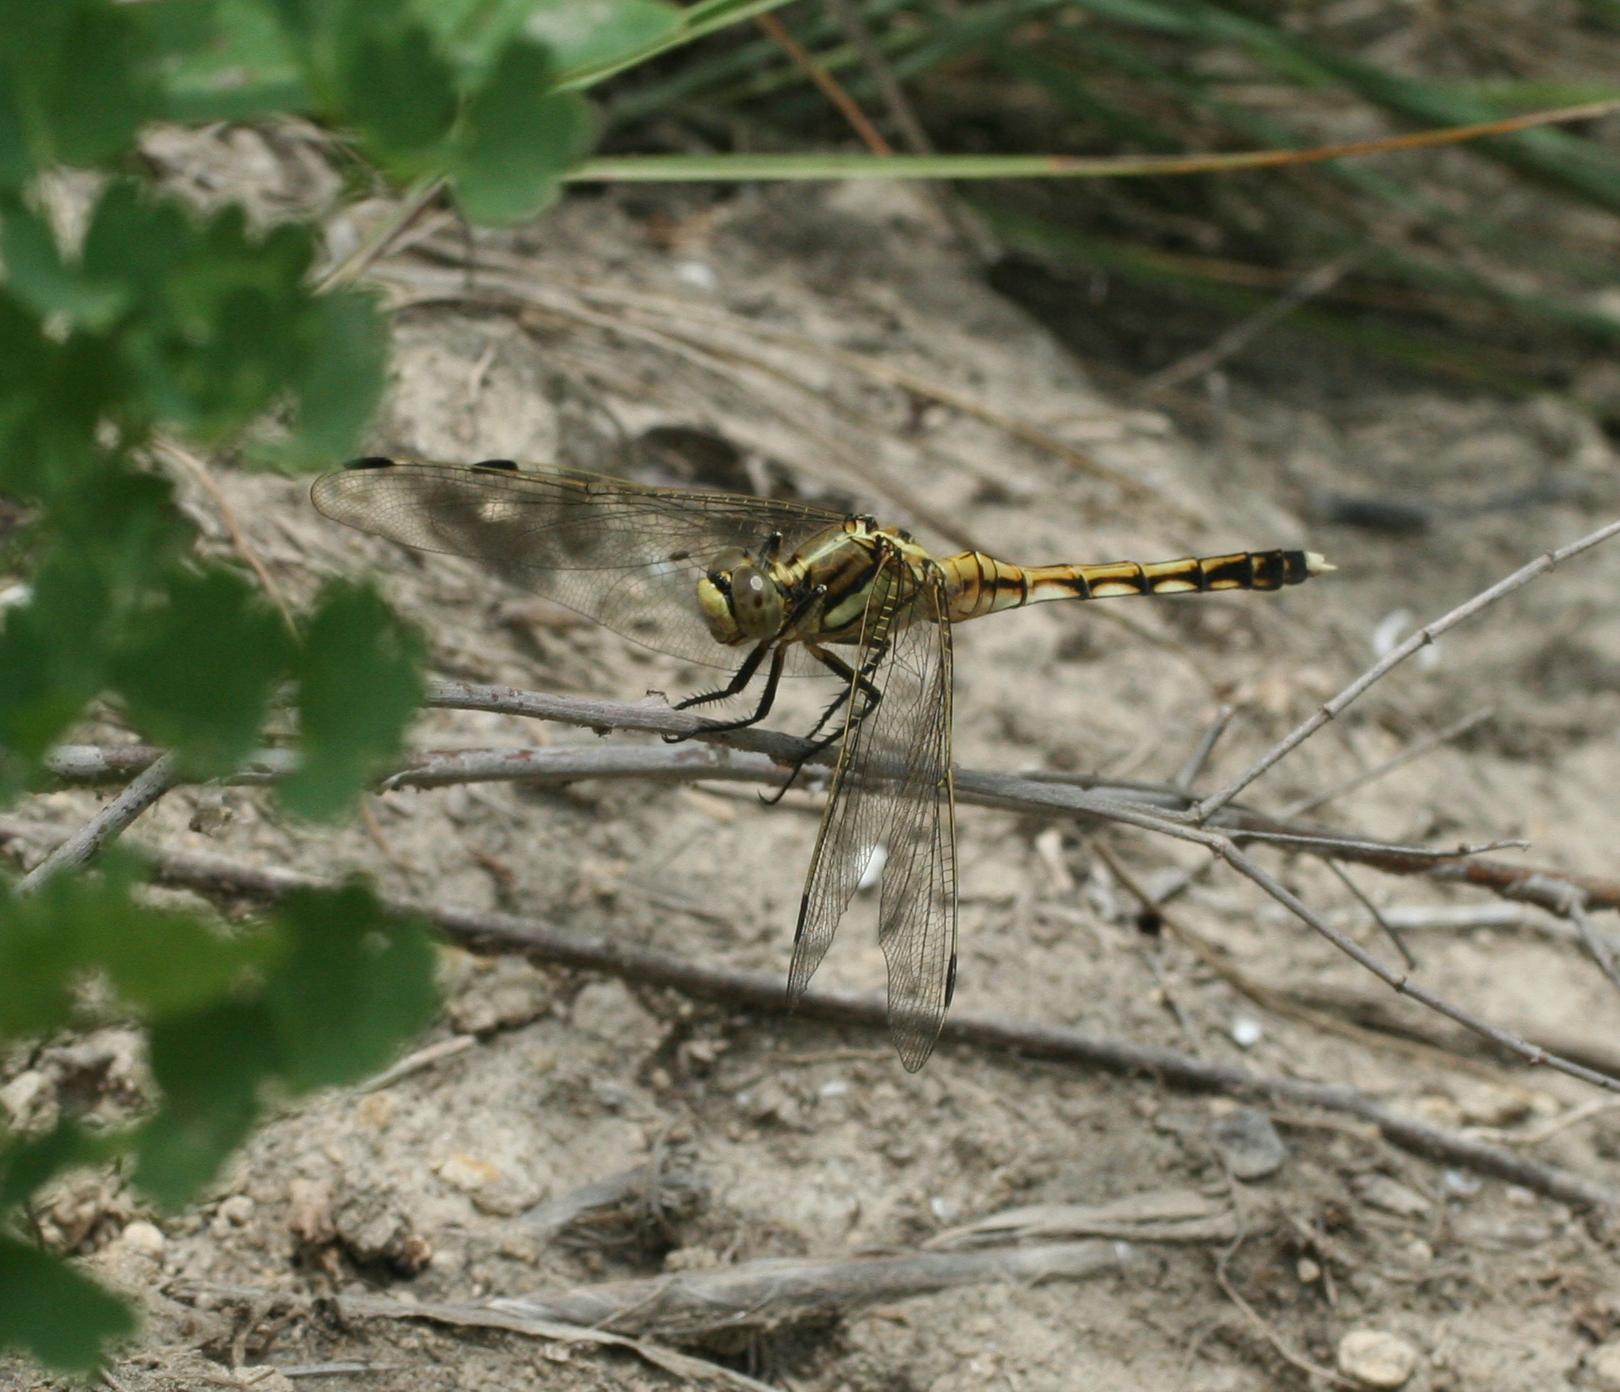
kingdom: Animalia
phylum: Arthropoda
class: Insecta
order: Odonata
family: Libellulidae
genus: Orthetrum
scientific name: Orthetrum albistylum
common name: White-tailed skimmer
